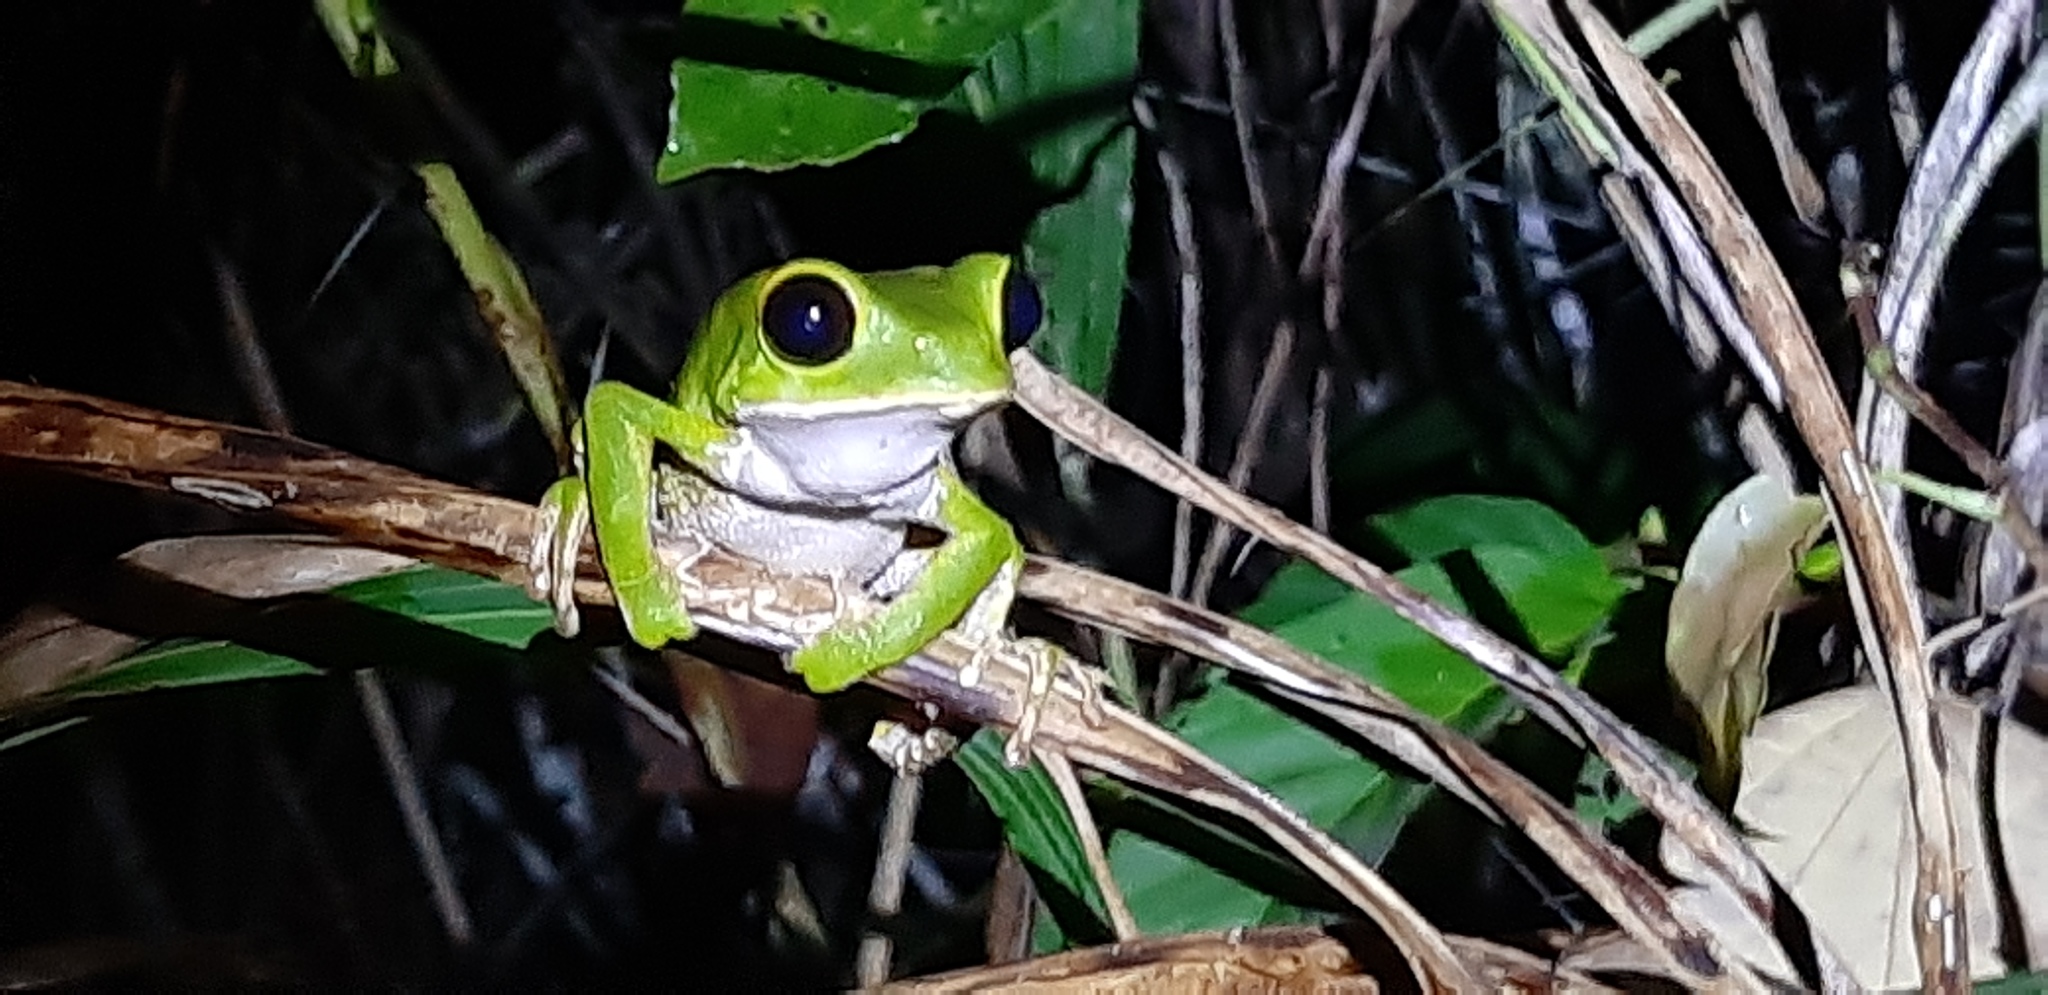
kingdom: Animalia
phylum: Chordata
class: Amphibia
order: Anura
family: Phyllomedusidae
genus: Phyllomedusa
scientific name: Phyllomedusa camba
